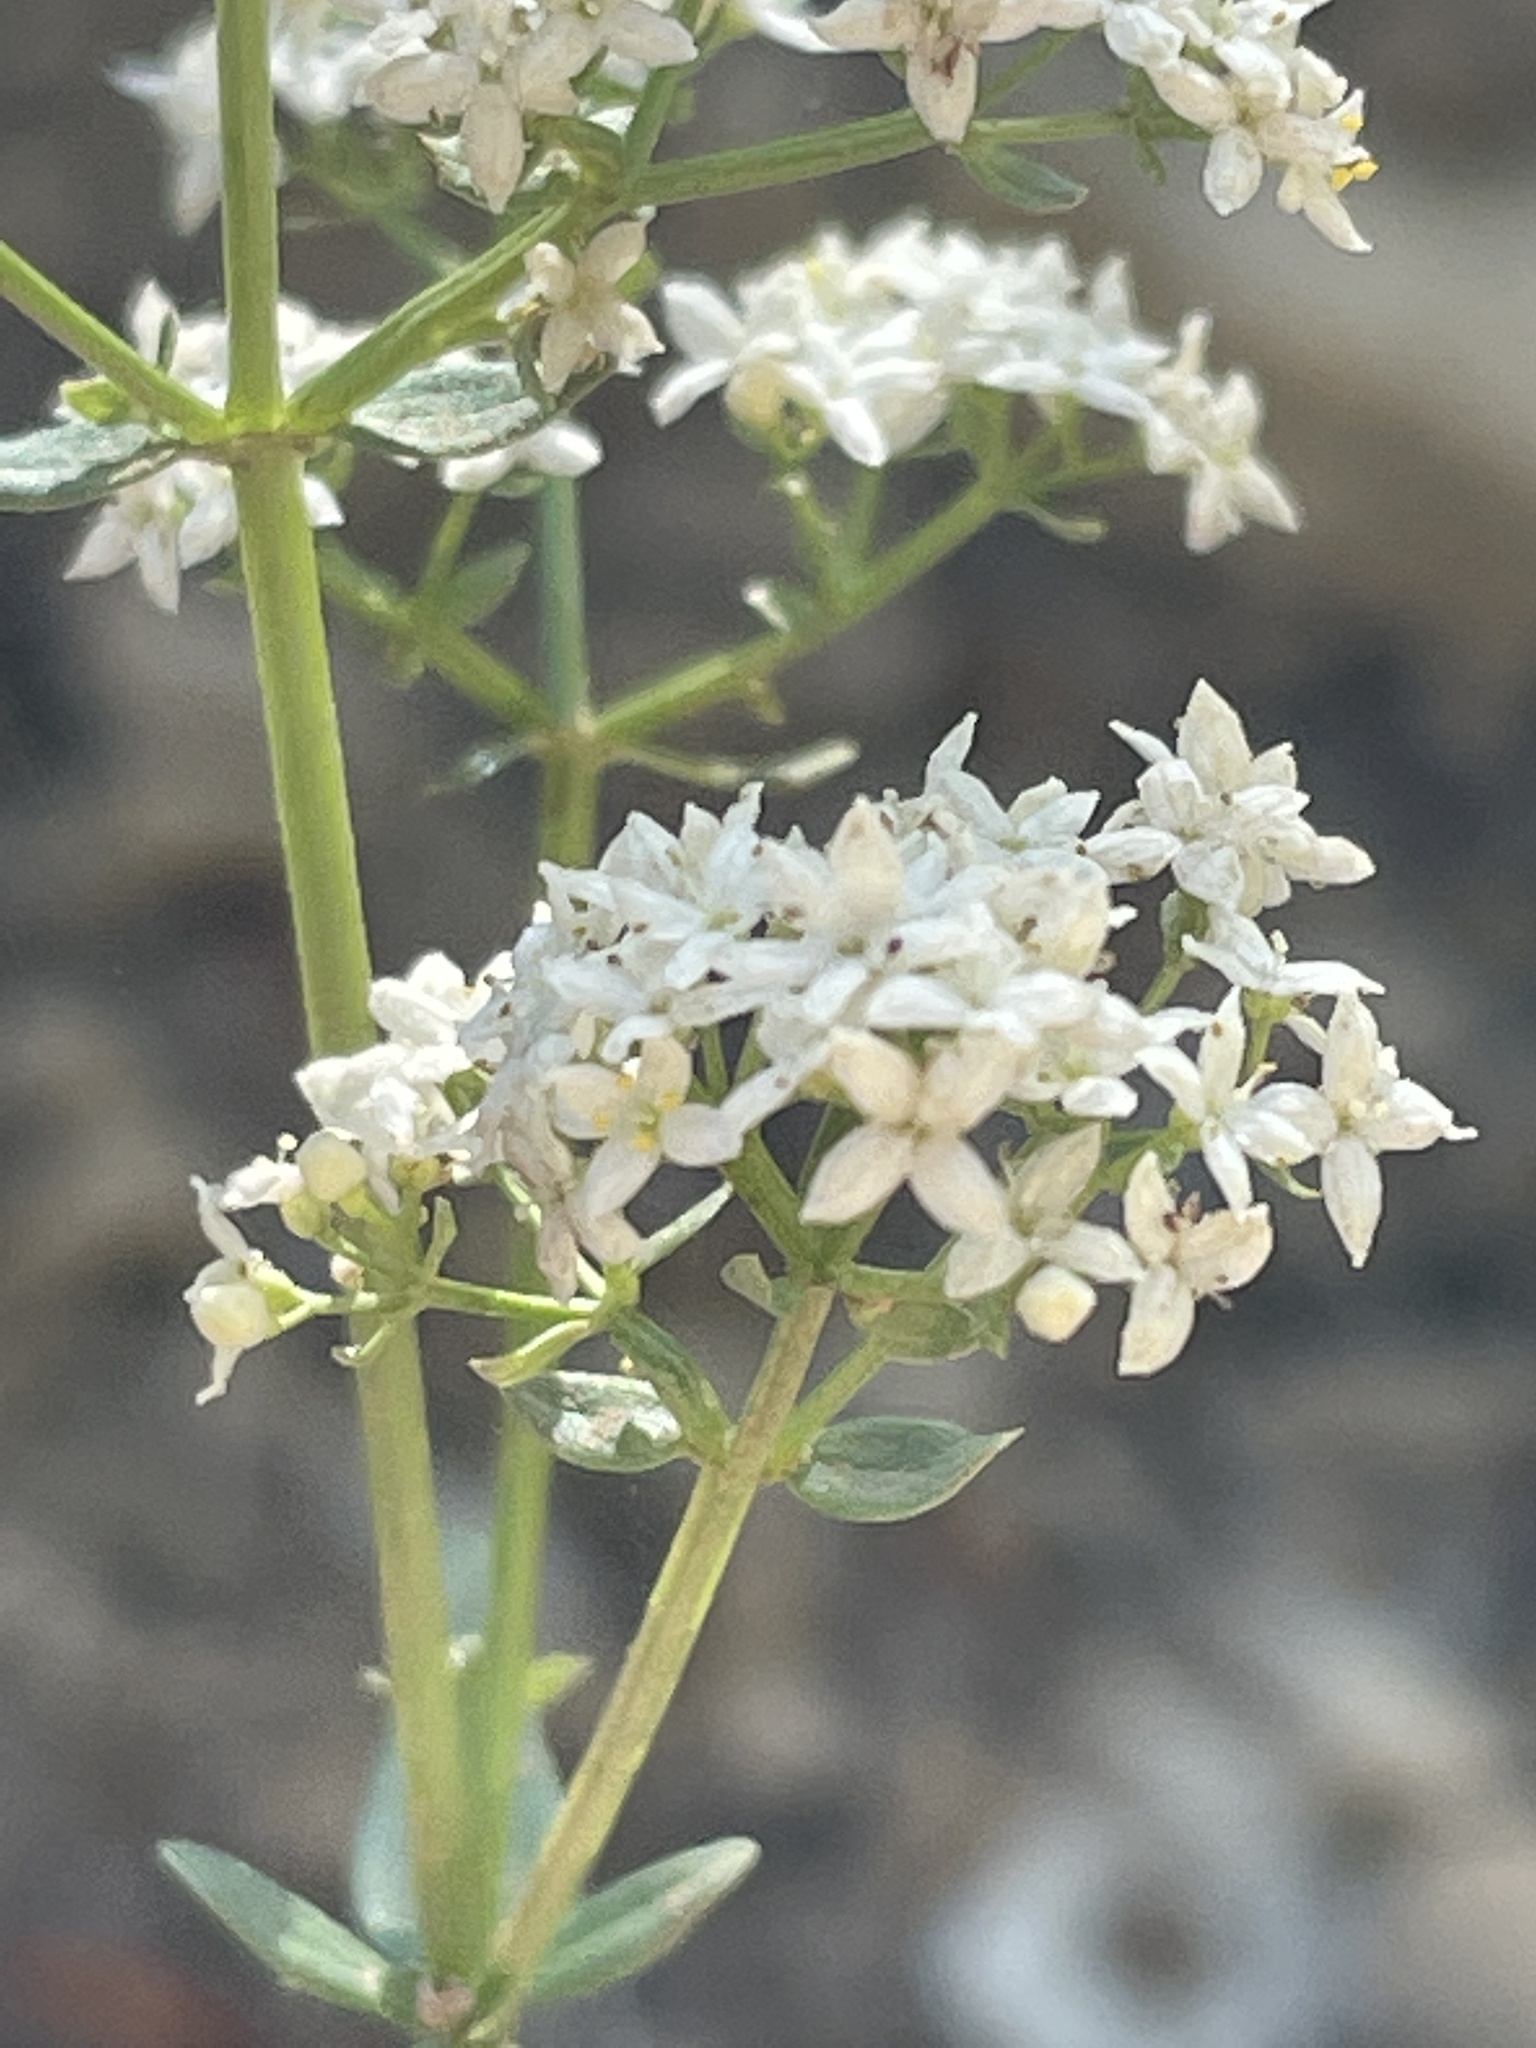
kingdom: Plantae
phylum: Tracheophyta
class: Magnoliopsida
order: Gentianales
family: Rubiaceae
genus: Galium
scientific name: Galium boreale
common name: Northern bedstraw
